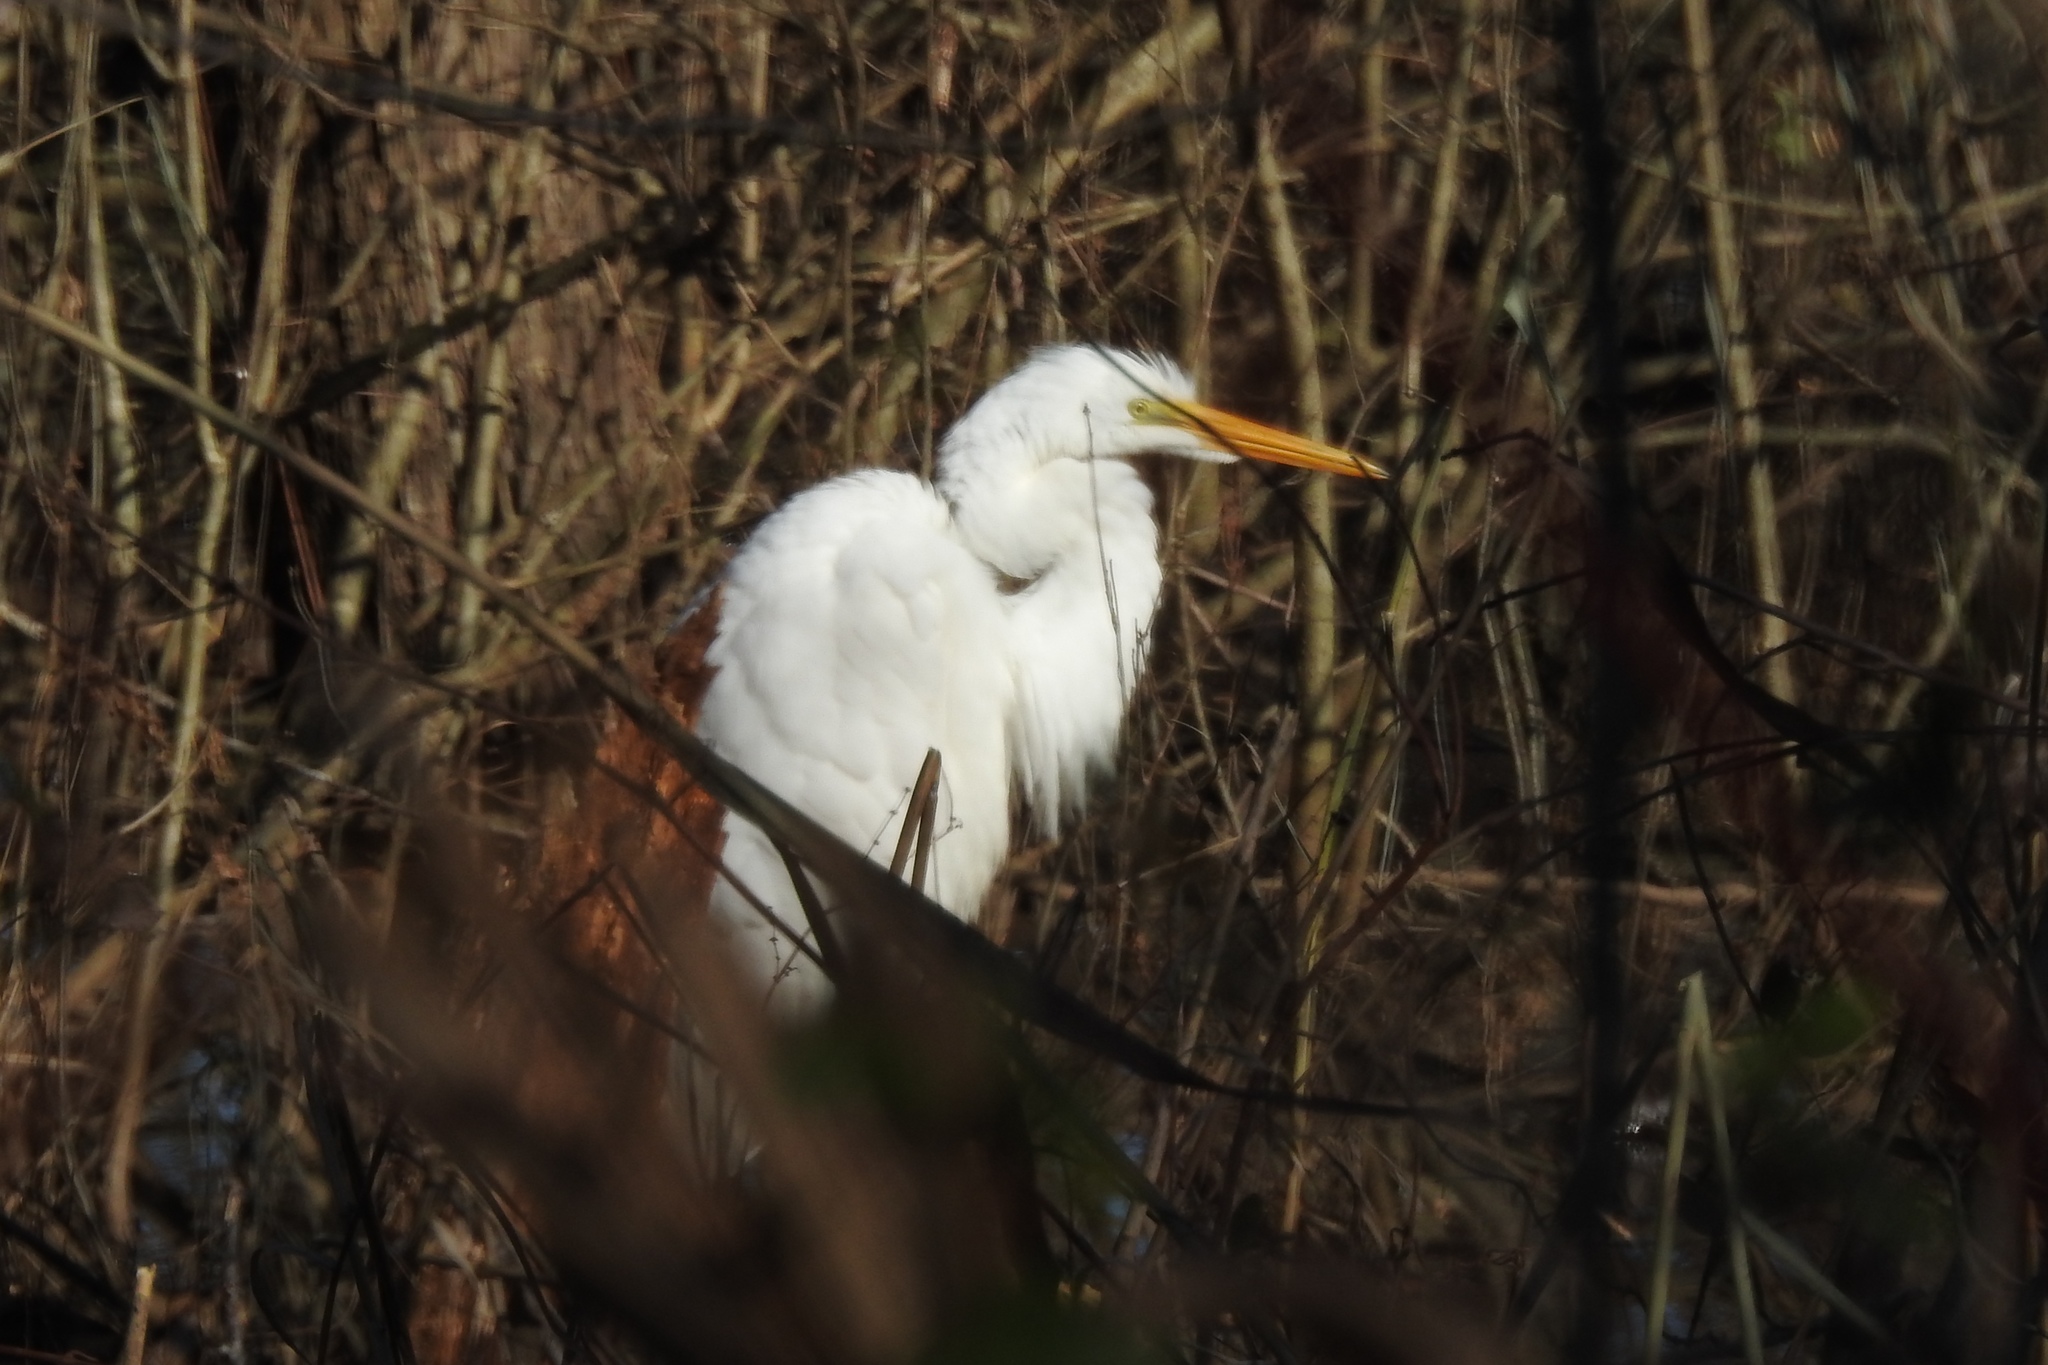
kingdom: Animalia
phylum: Chordata
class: Aves
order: Pelecaniformes
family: Ardeidae
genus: Ardea
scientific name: Ardea alba
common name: Great egret
